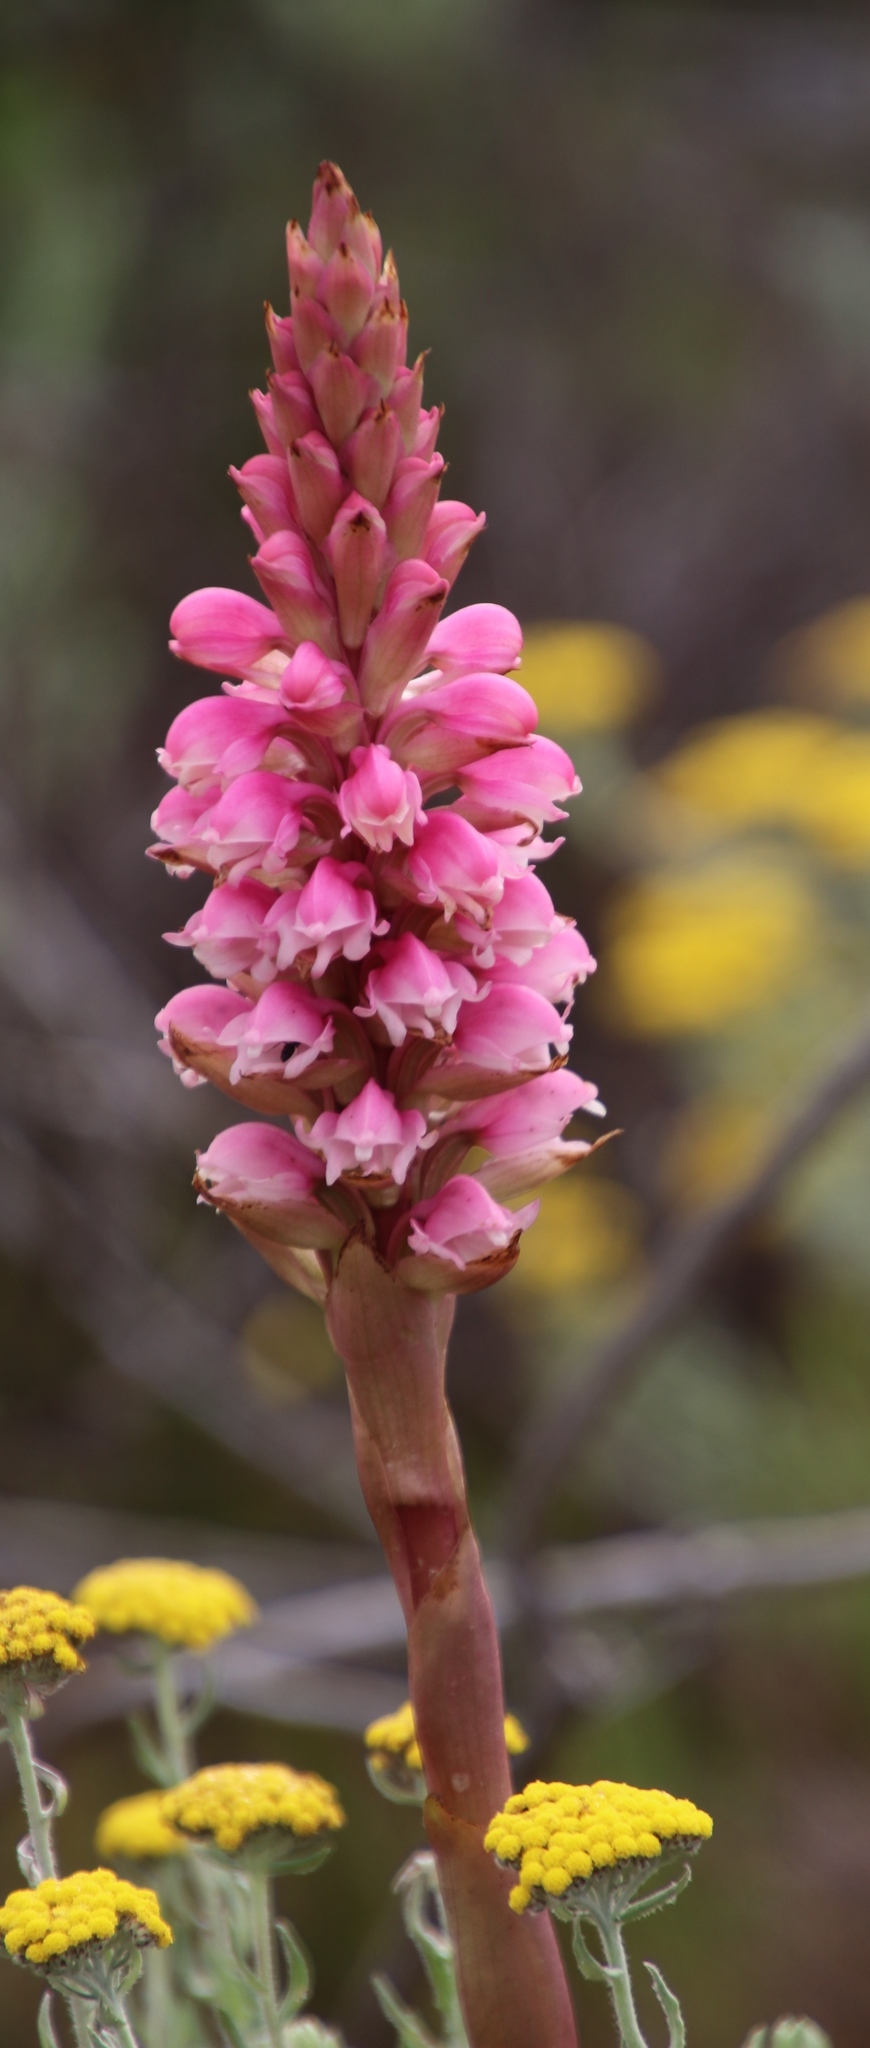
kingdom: Plantae
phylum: Tracheophyta
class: Liliopsida
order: Asparagales
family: Orchidaceae
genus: Satyrium
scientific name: Satyrium carneum
